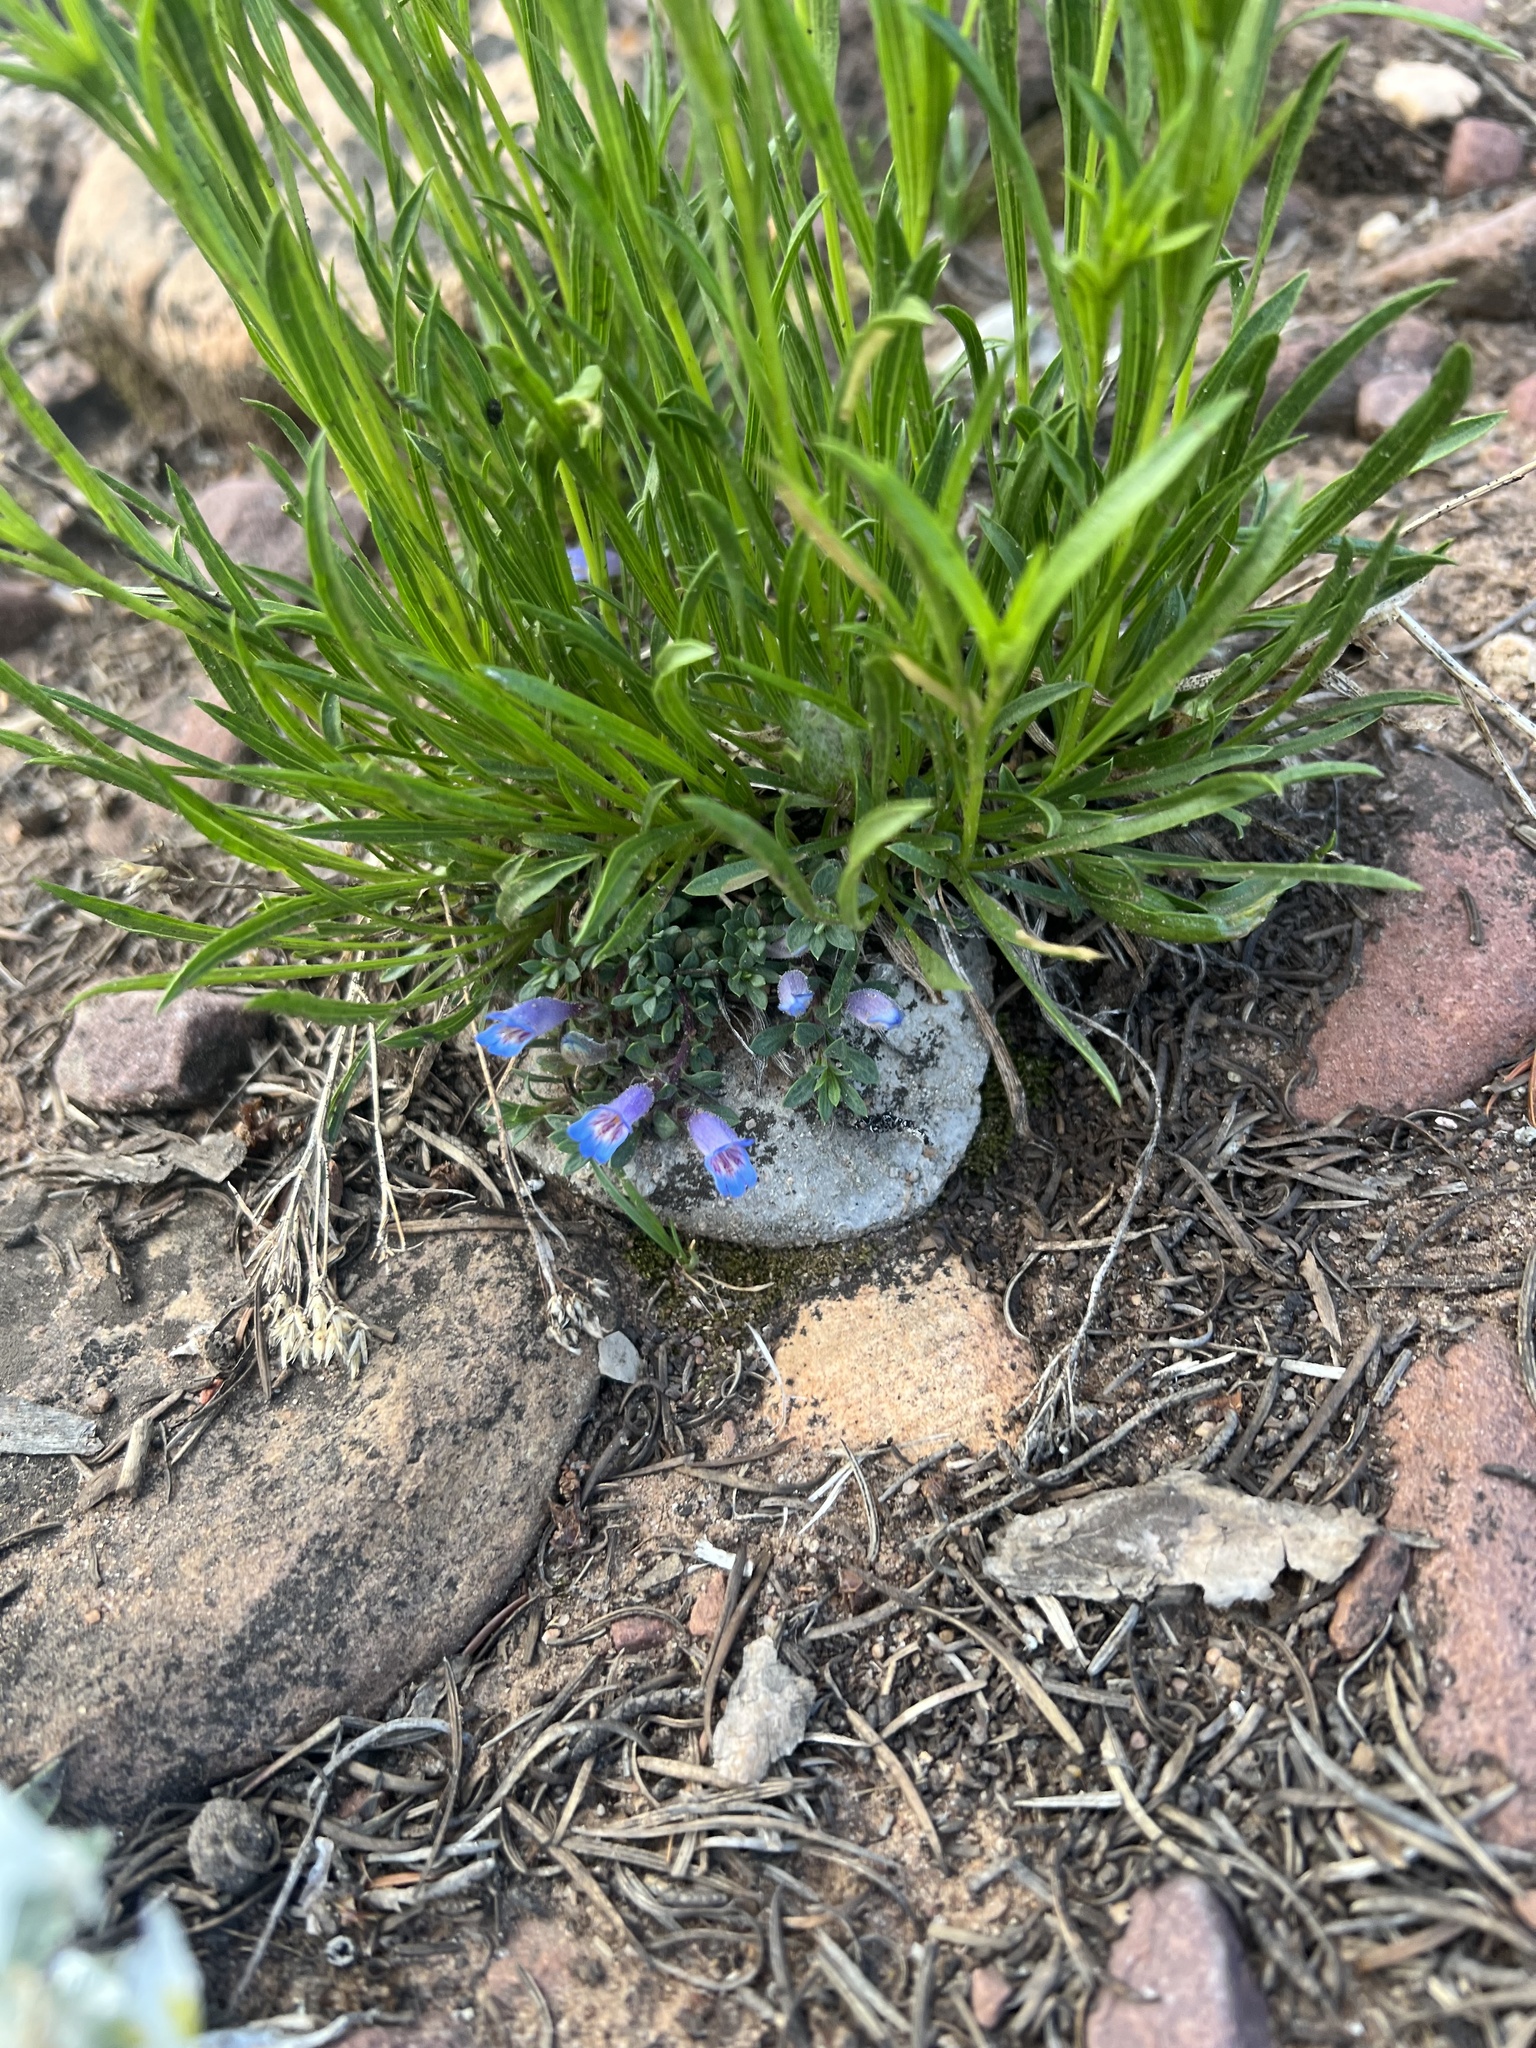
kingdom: Plantae
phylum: Tracheophyta
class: Magnoliopsida
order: Lamiales
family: Plantaginaceae
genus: Penstemon
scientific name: Penstemon caespitosus
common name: Mat penstemon
